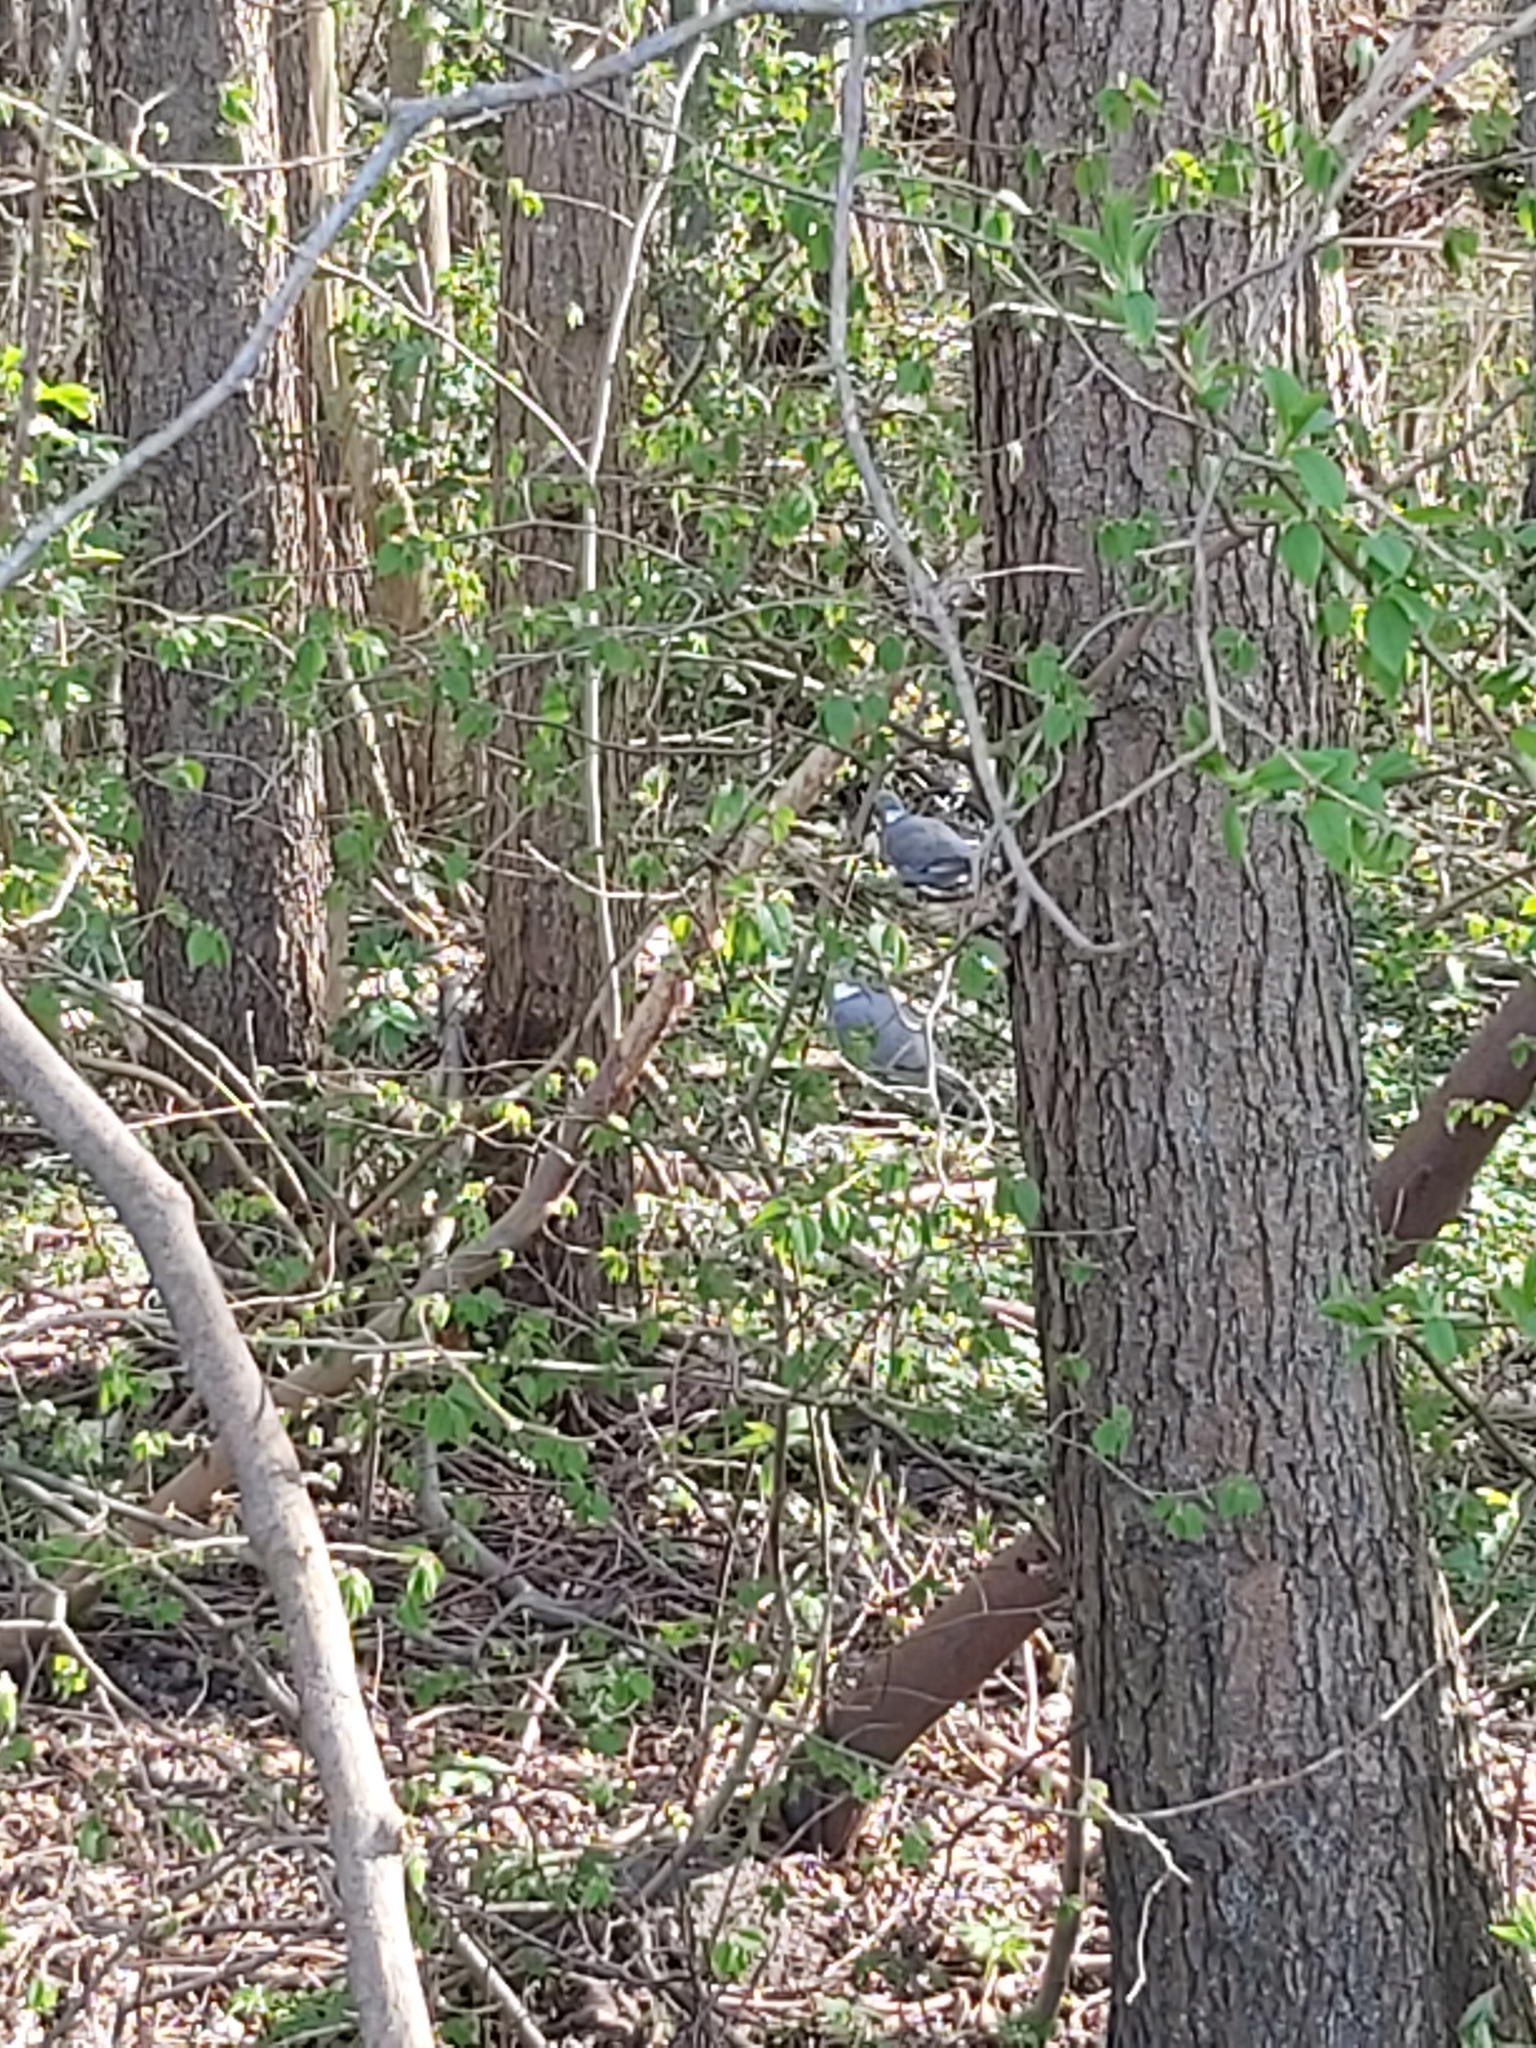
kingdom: Animalia
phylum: Chordata
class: Aves
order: Columbiformes
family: Columbidae
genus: Columba
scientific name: Columba palumbus
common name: Common wood pigeon
